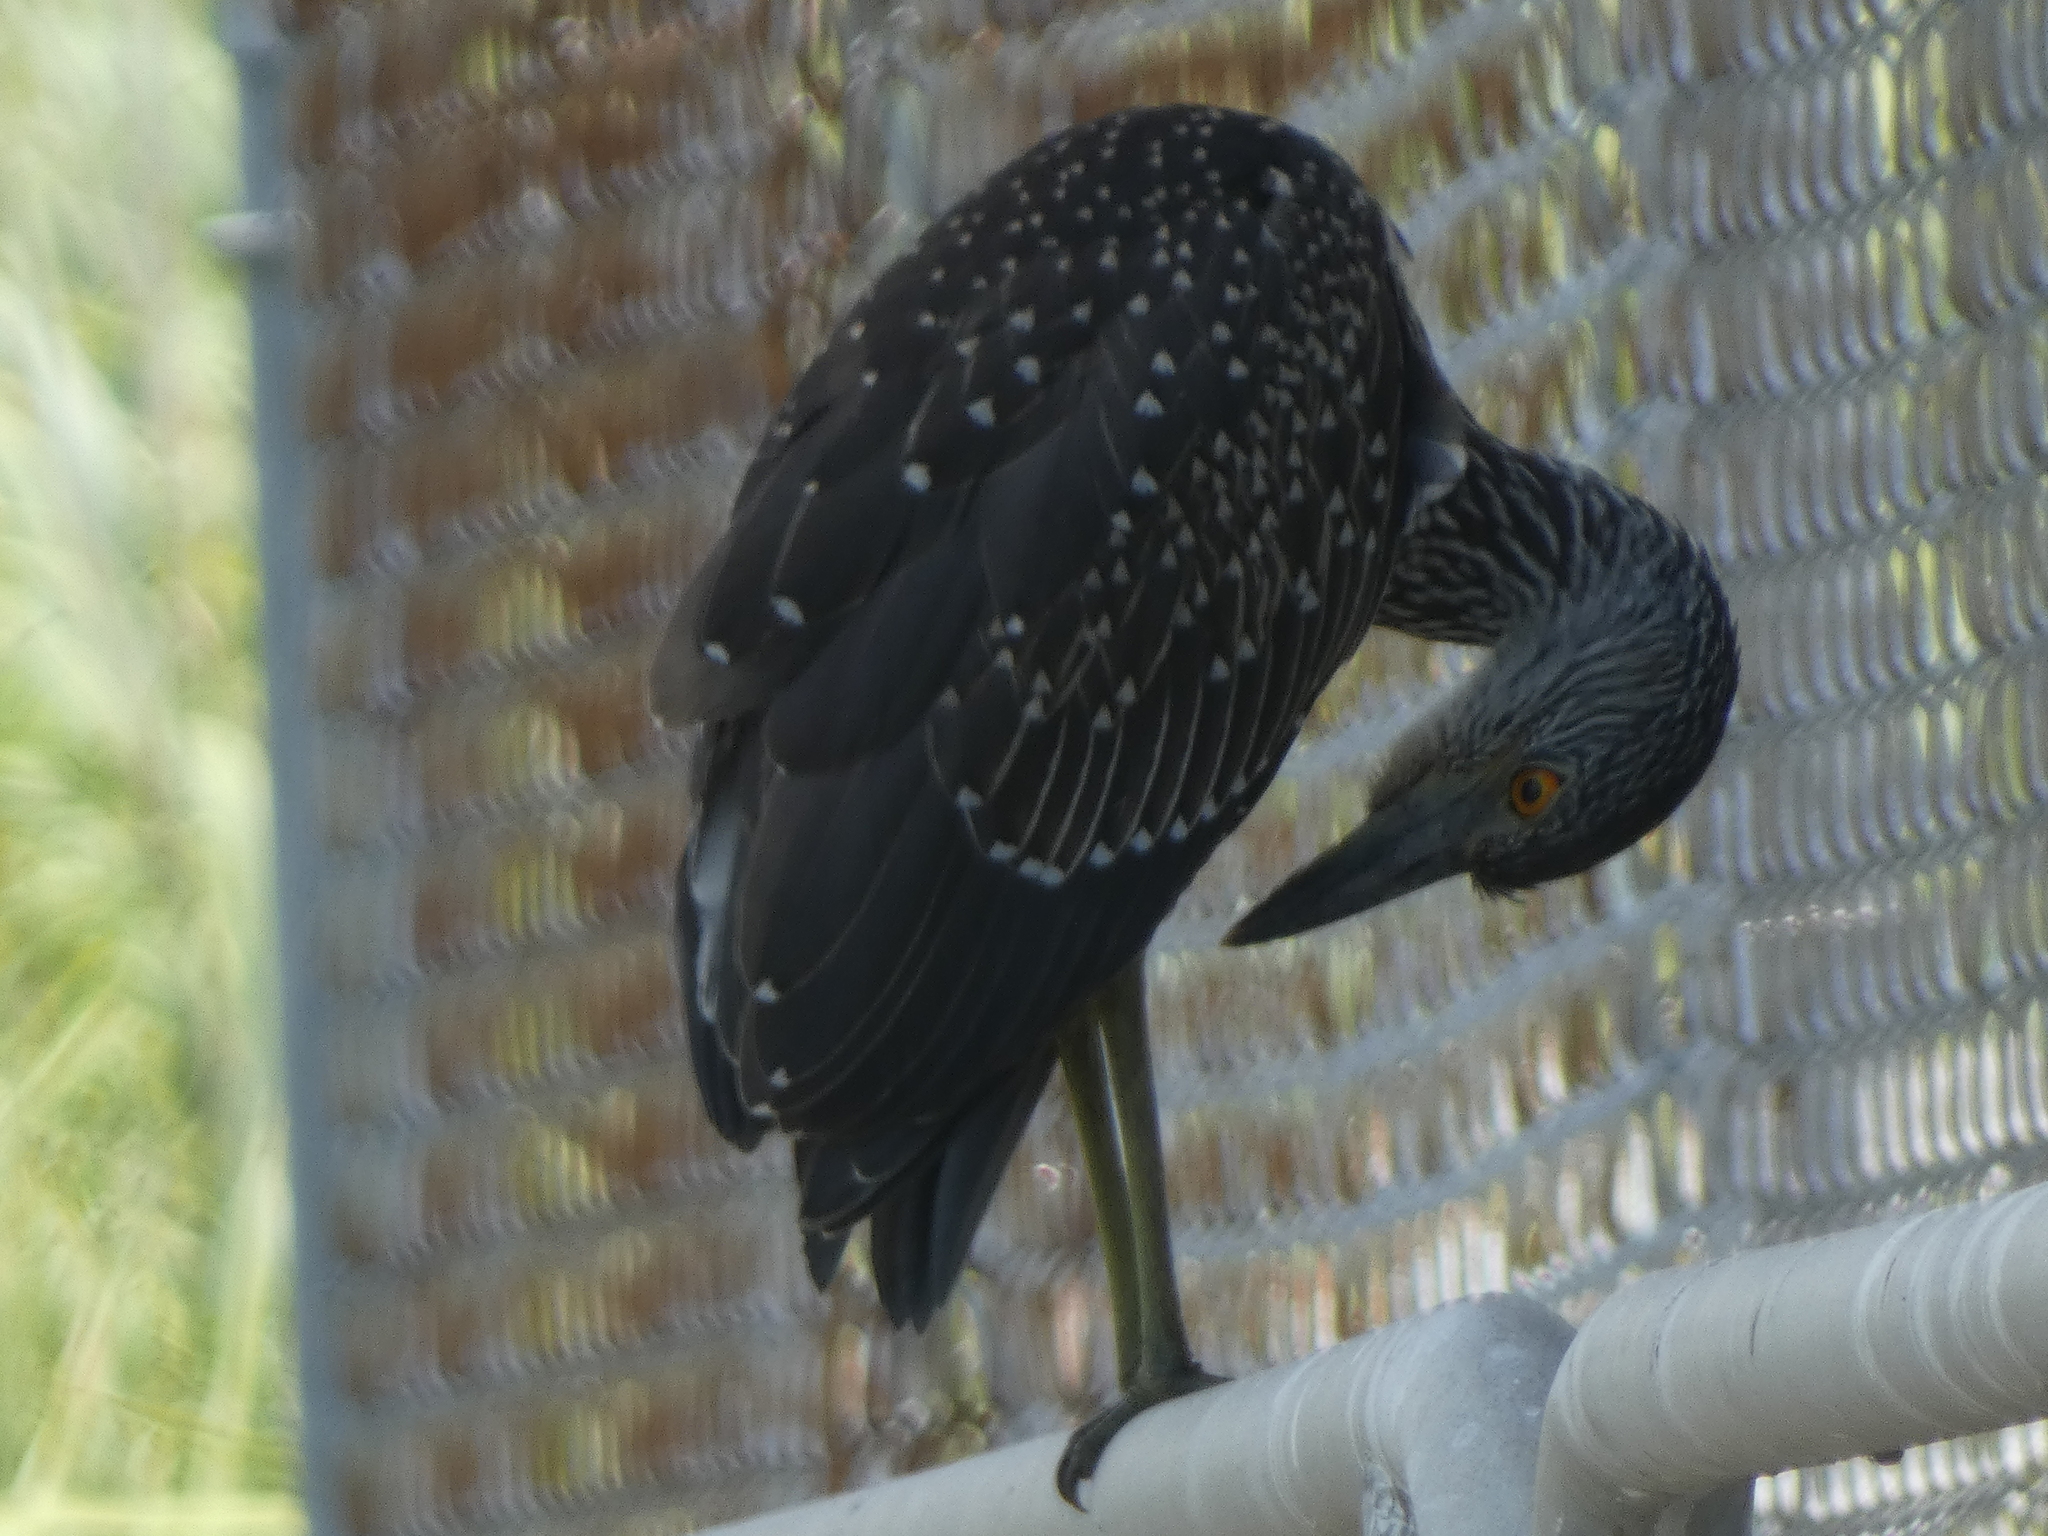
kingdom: Animalia
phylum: Chordata
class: Aves
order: Pelecaniformes
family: Ardeidae
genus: Nyctanassa
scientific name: Nyctanassa violacea
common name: Yellow-crowned night heron
